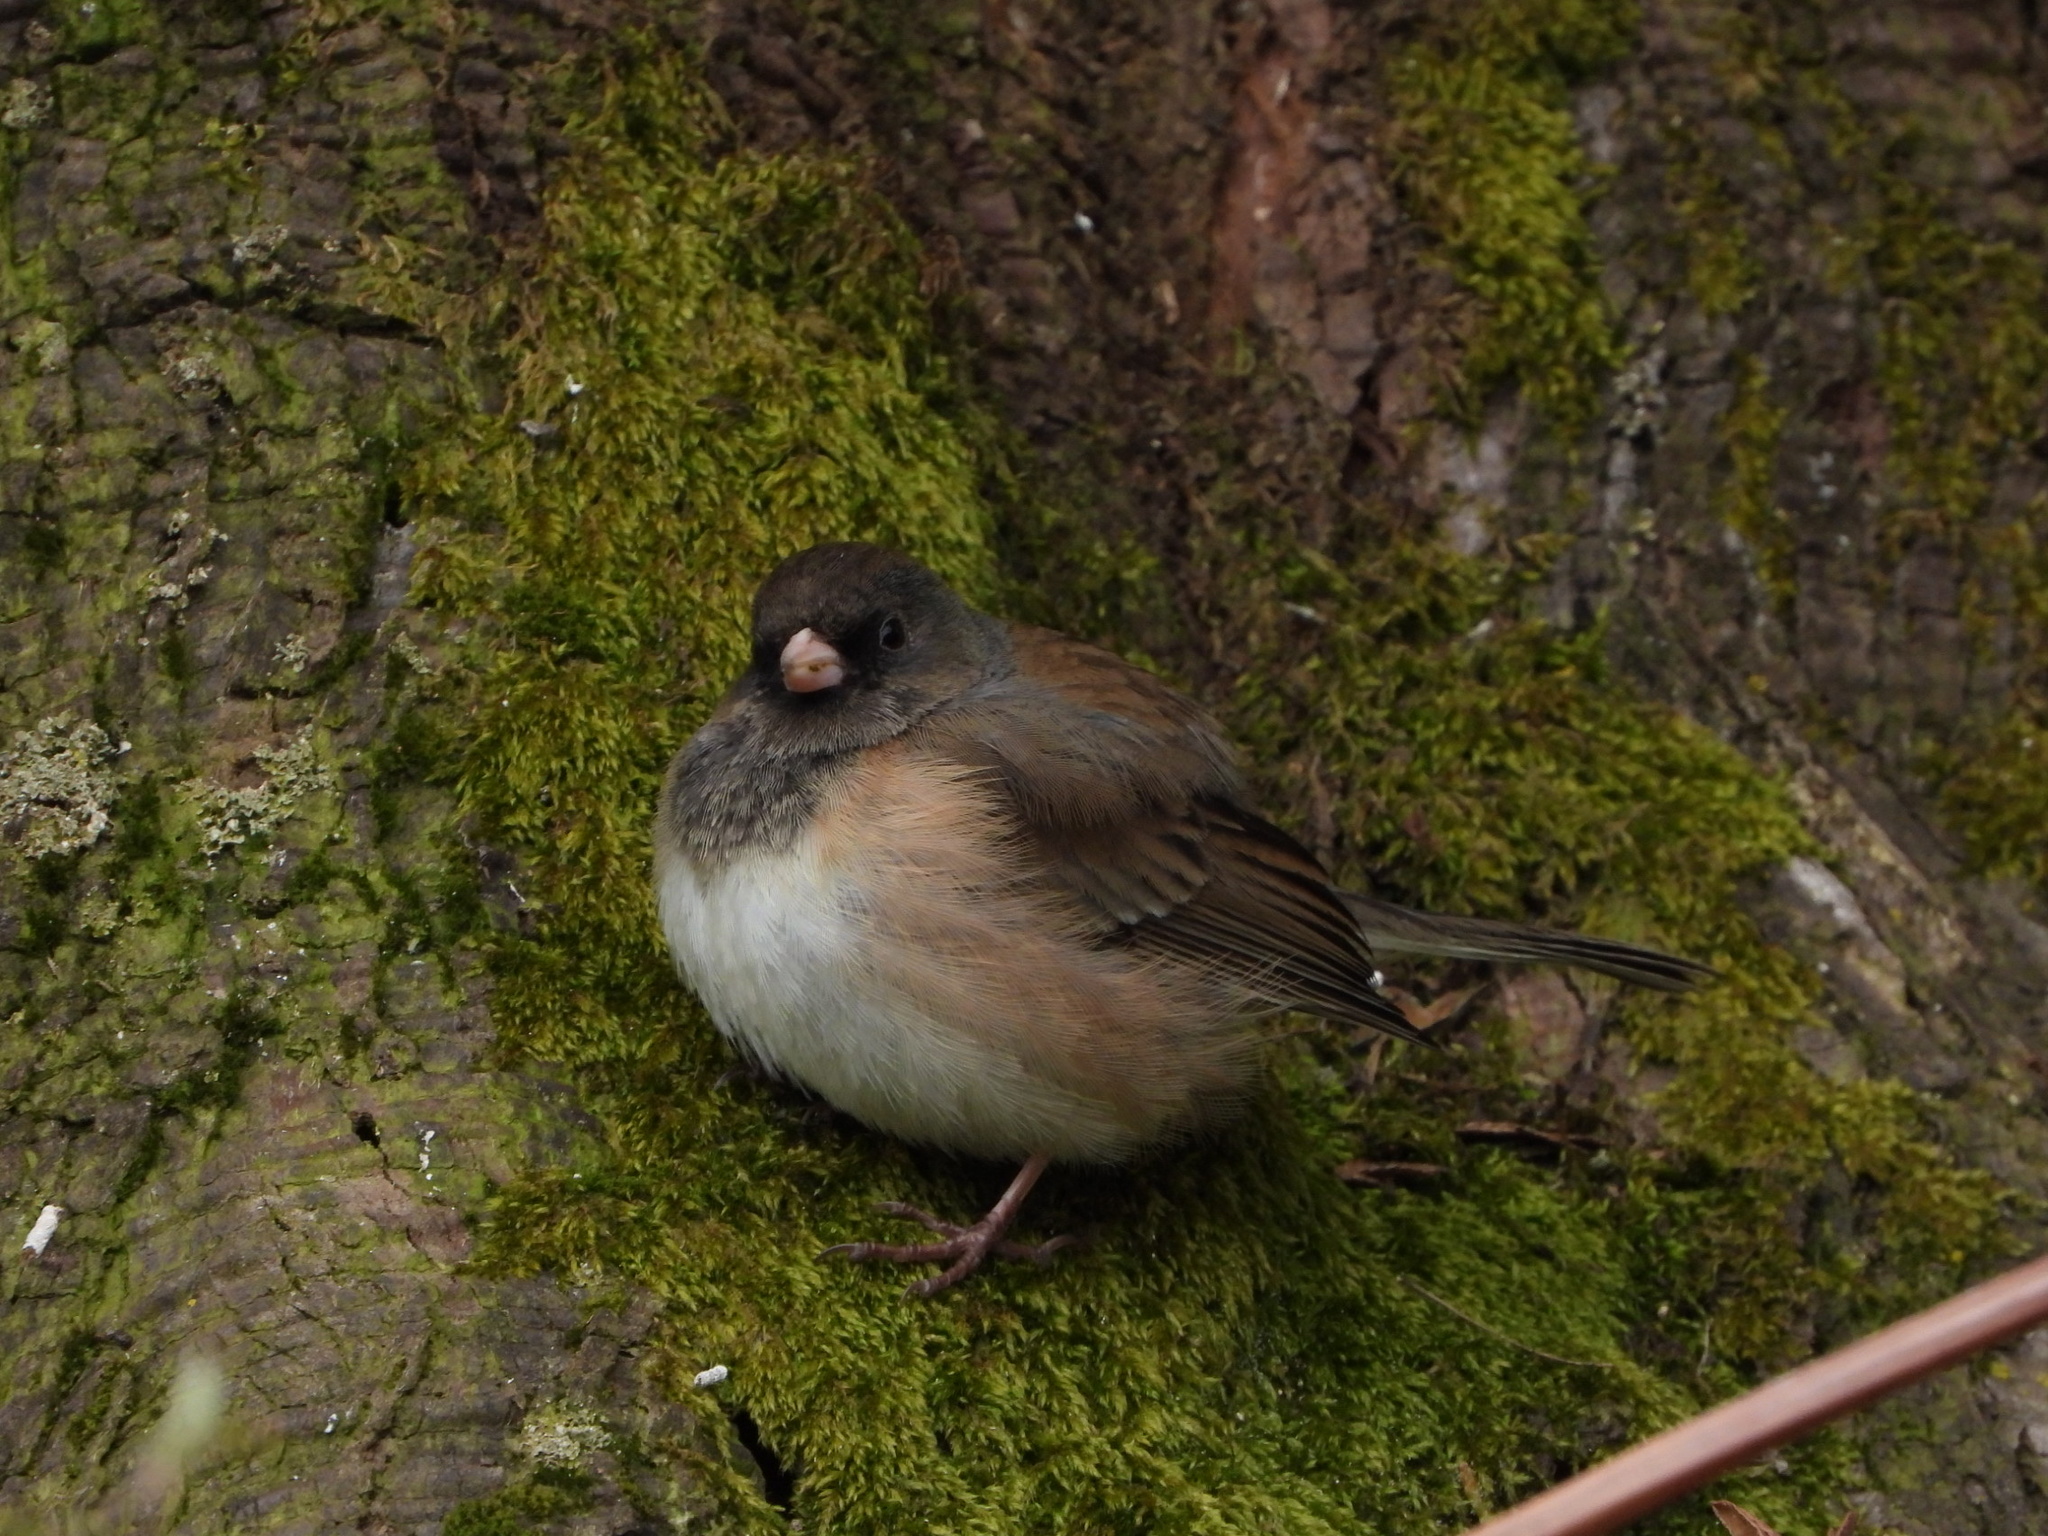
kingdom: Animalia
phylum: Chordata
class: Aves
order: Passeriformes
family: Passerellidae
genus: Junco
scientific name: Junco hyemalis
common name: Dark-eyed junco
